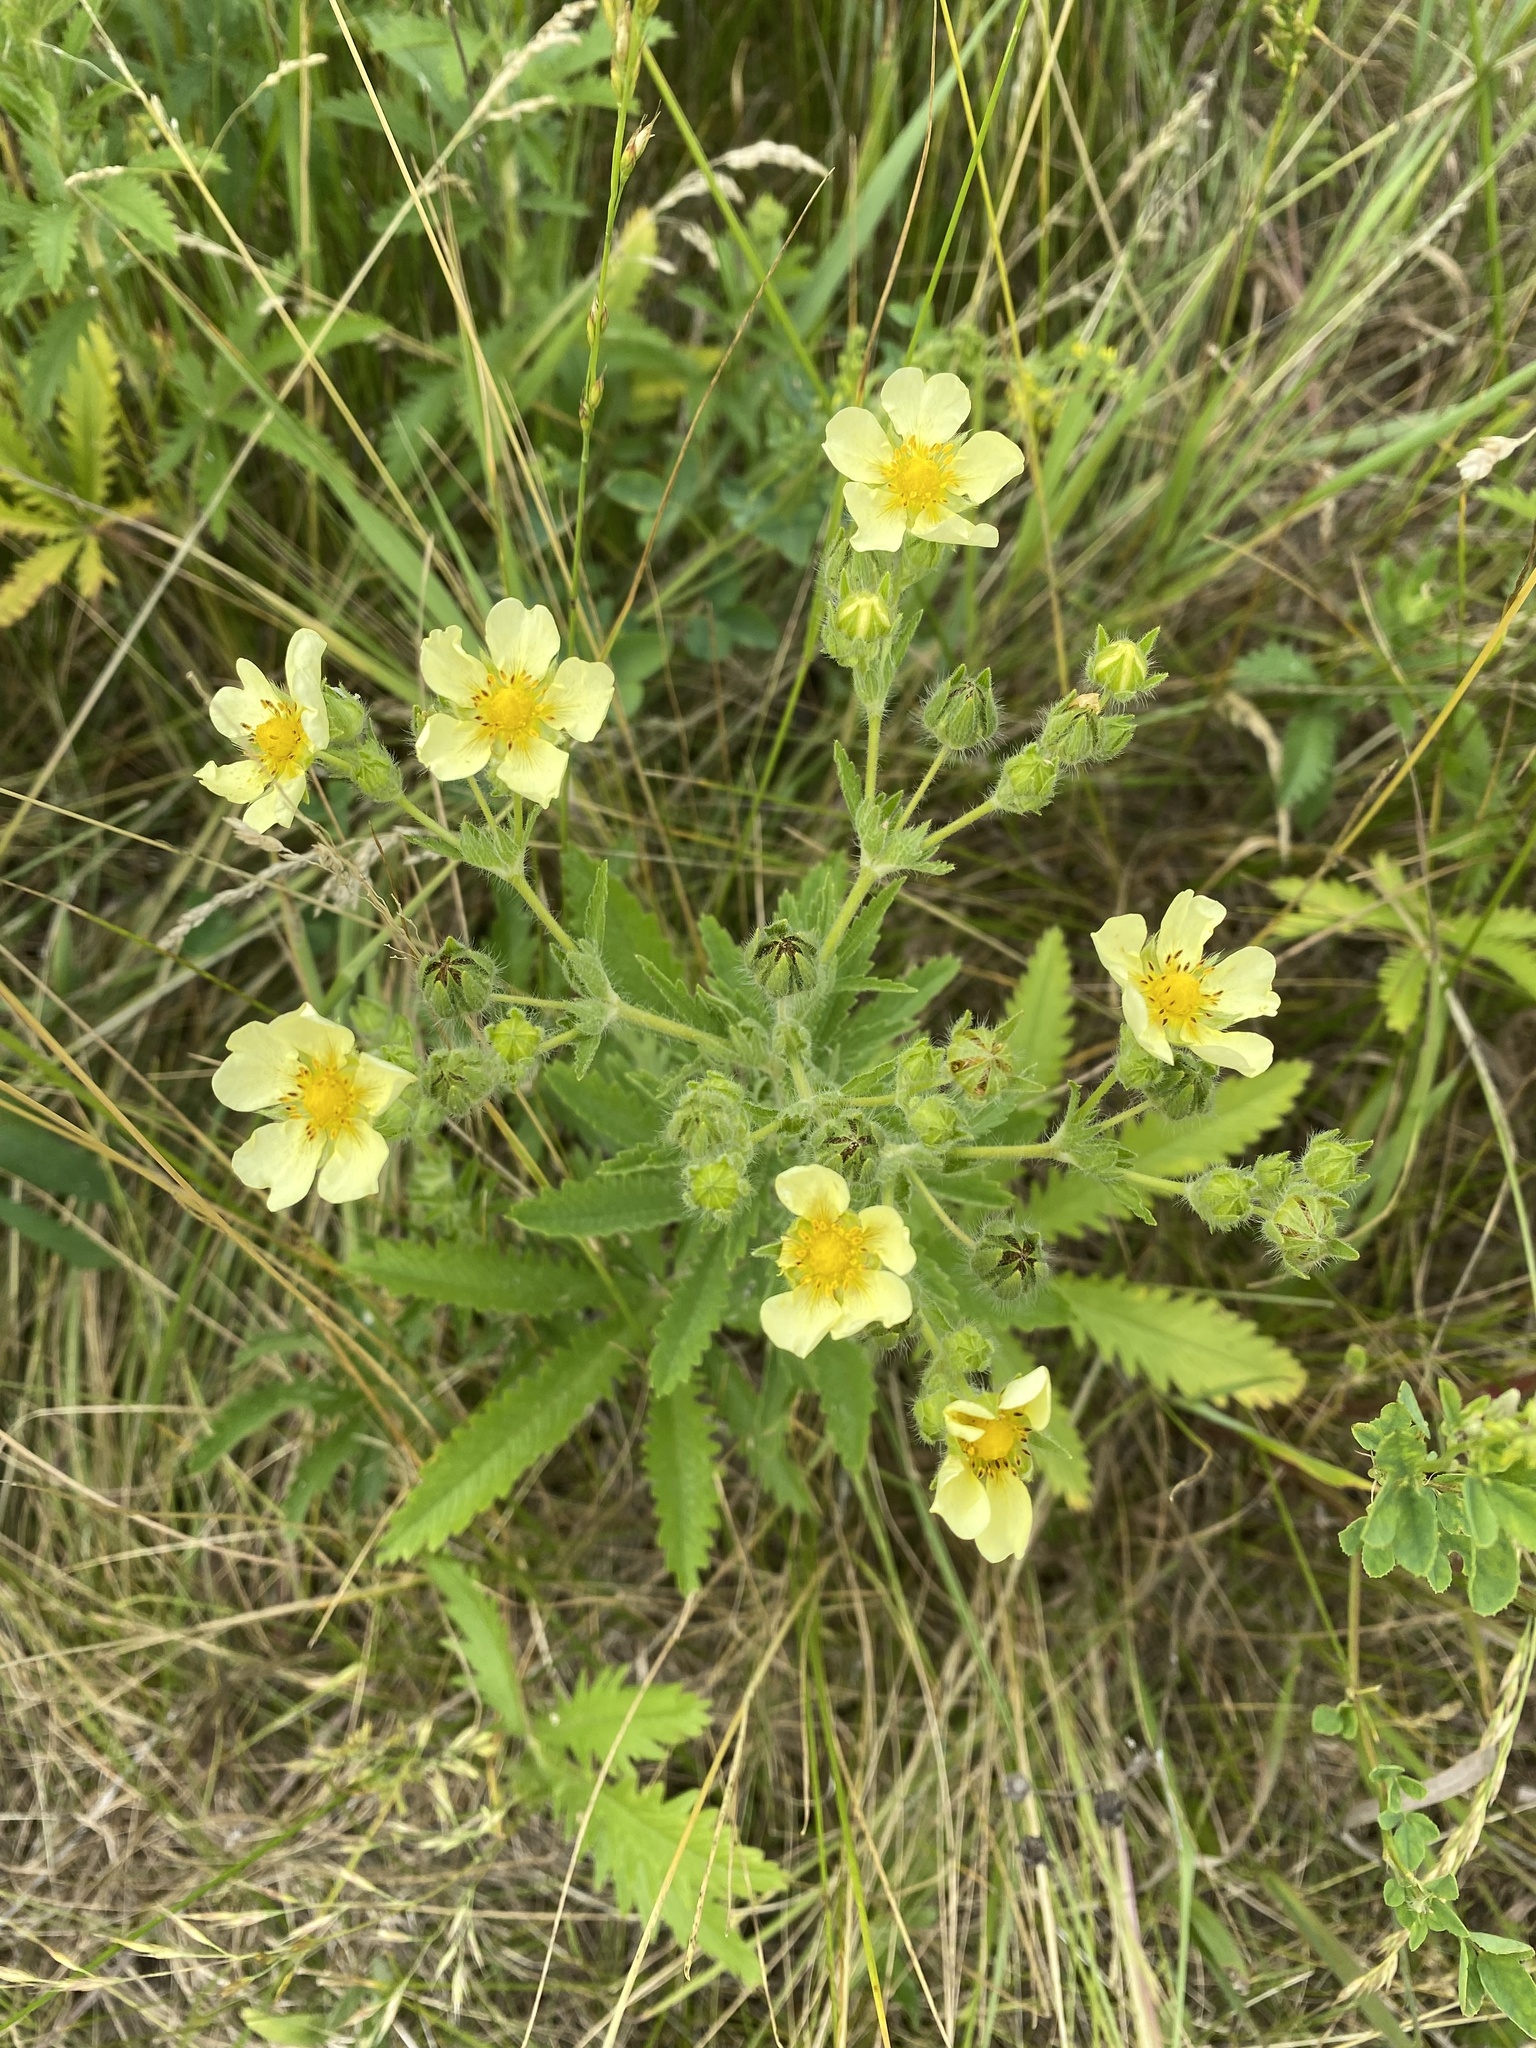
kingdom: Plantae
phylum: Tracheophyta
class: Magnoliopsida
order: Rosales
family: Rosaceae
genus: Potentilla
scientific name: Potentilla recta
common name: Sulphur cinquefoil
